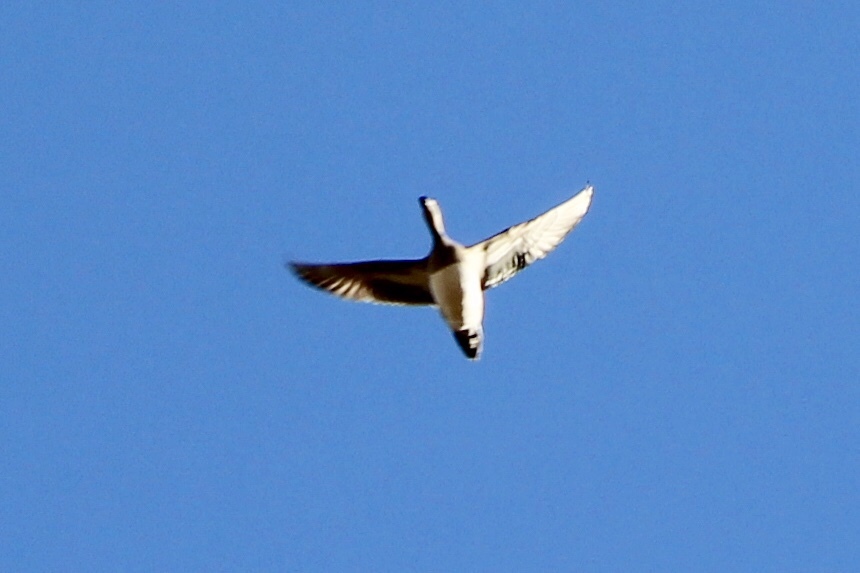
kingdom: Animalia
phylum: Chordata
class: Aves
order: Anseriformes
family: Anatidae
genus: Mareca
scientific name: Mareca americana
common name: American wigeon
